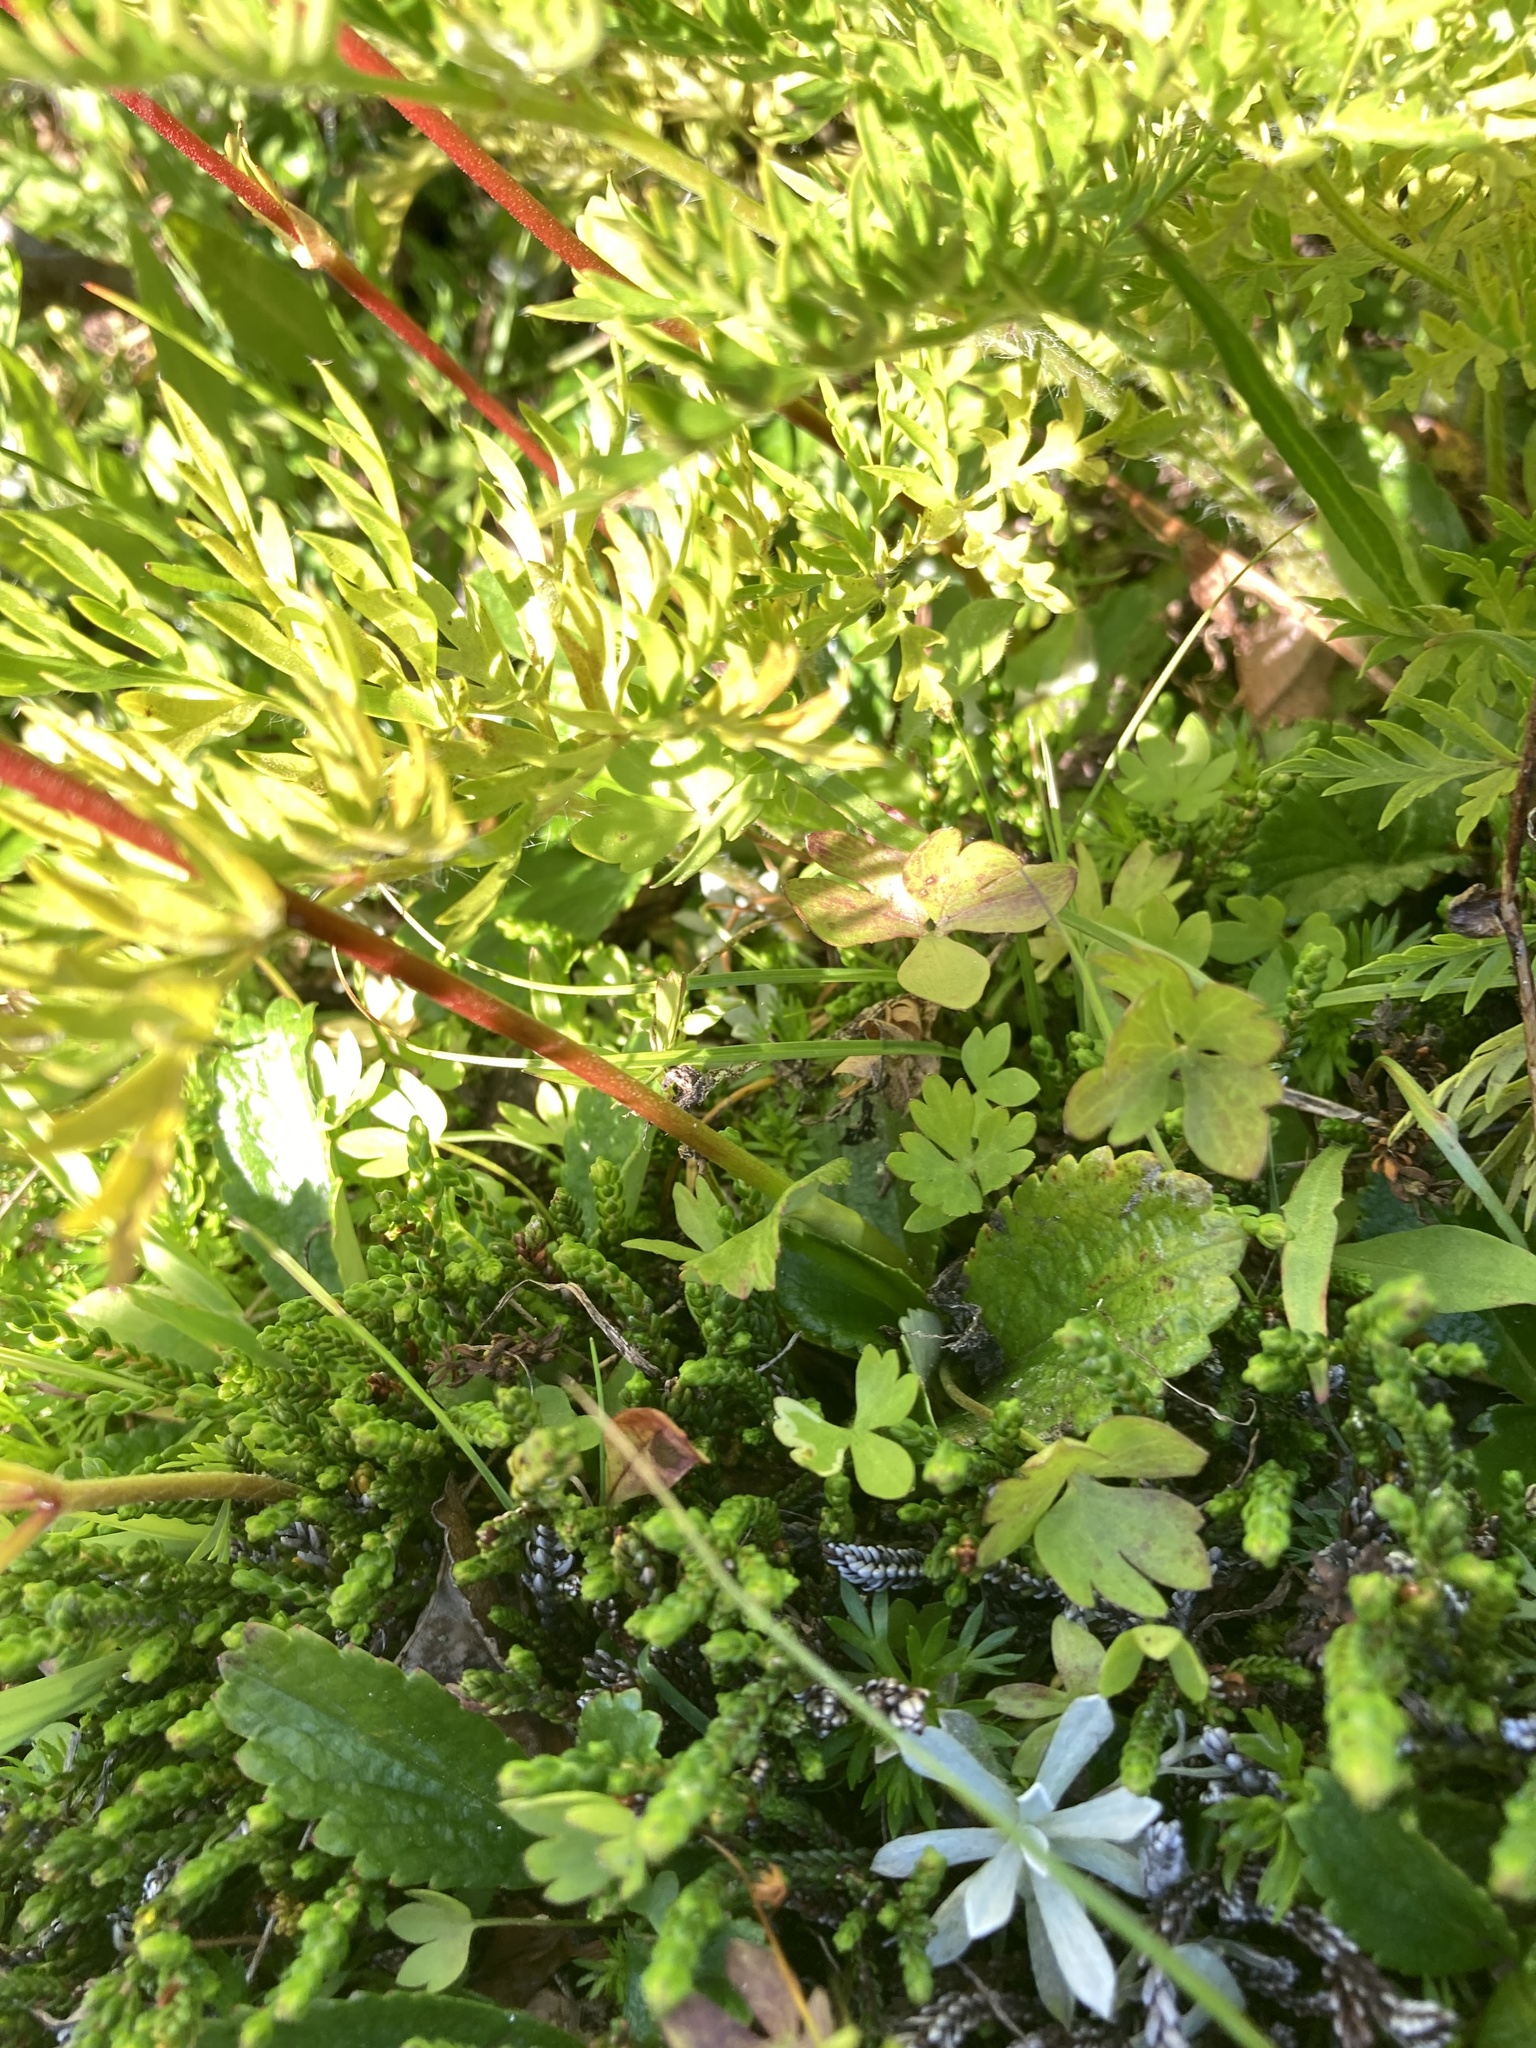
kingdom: Plantae
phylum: Tracheophyta
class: Magnoliopsida
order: Saxifragales
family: Saxifragaceae
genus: Leptarrhena
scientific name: Leptarrhena pyrolifolia
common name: Leatherleaf-saxifrage
